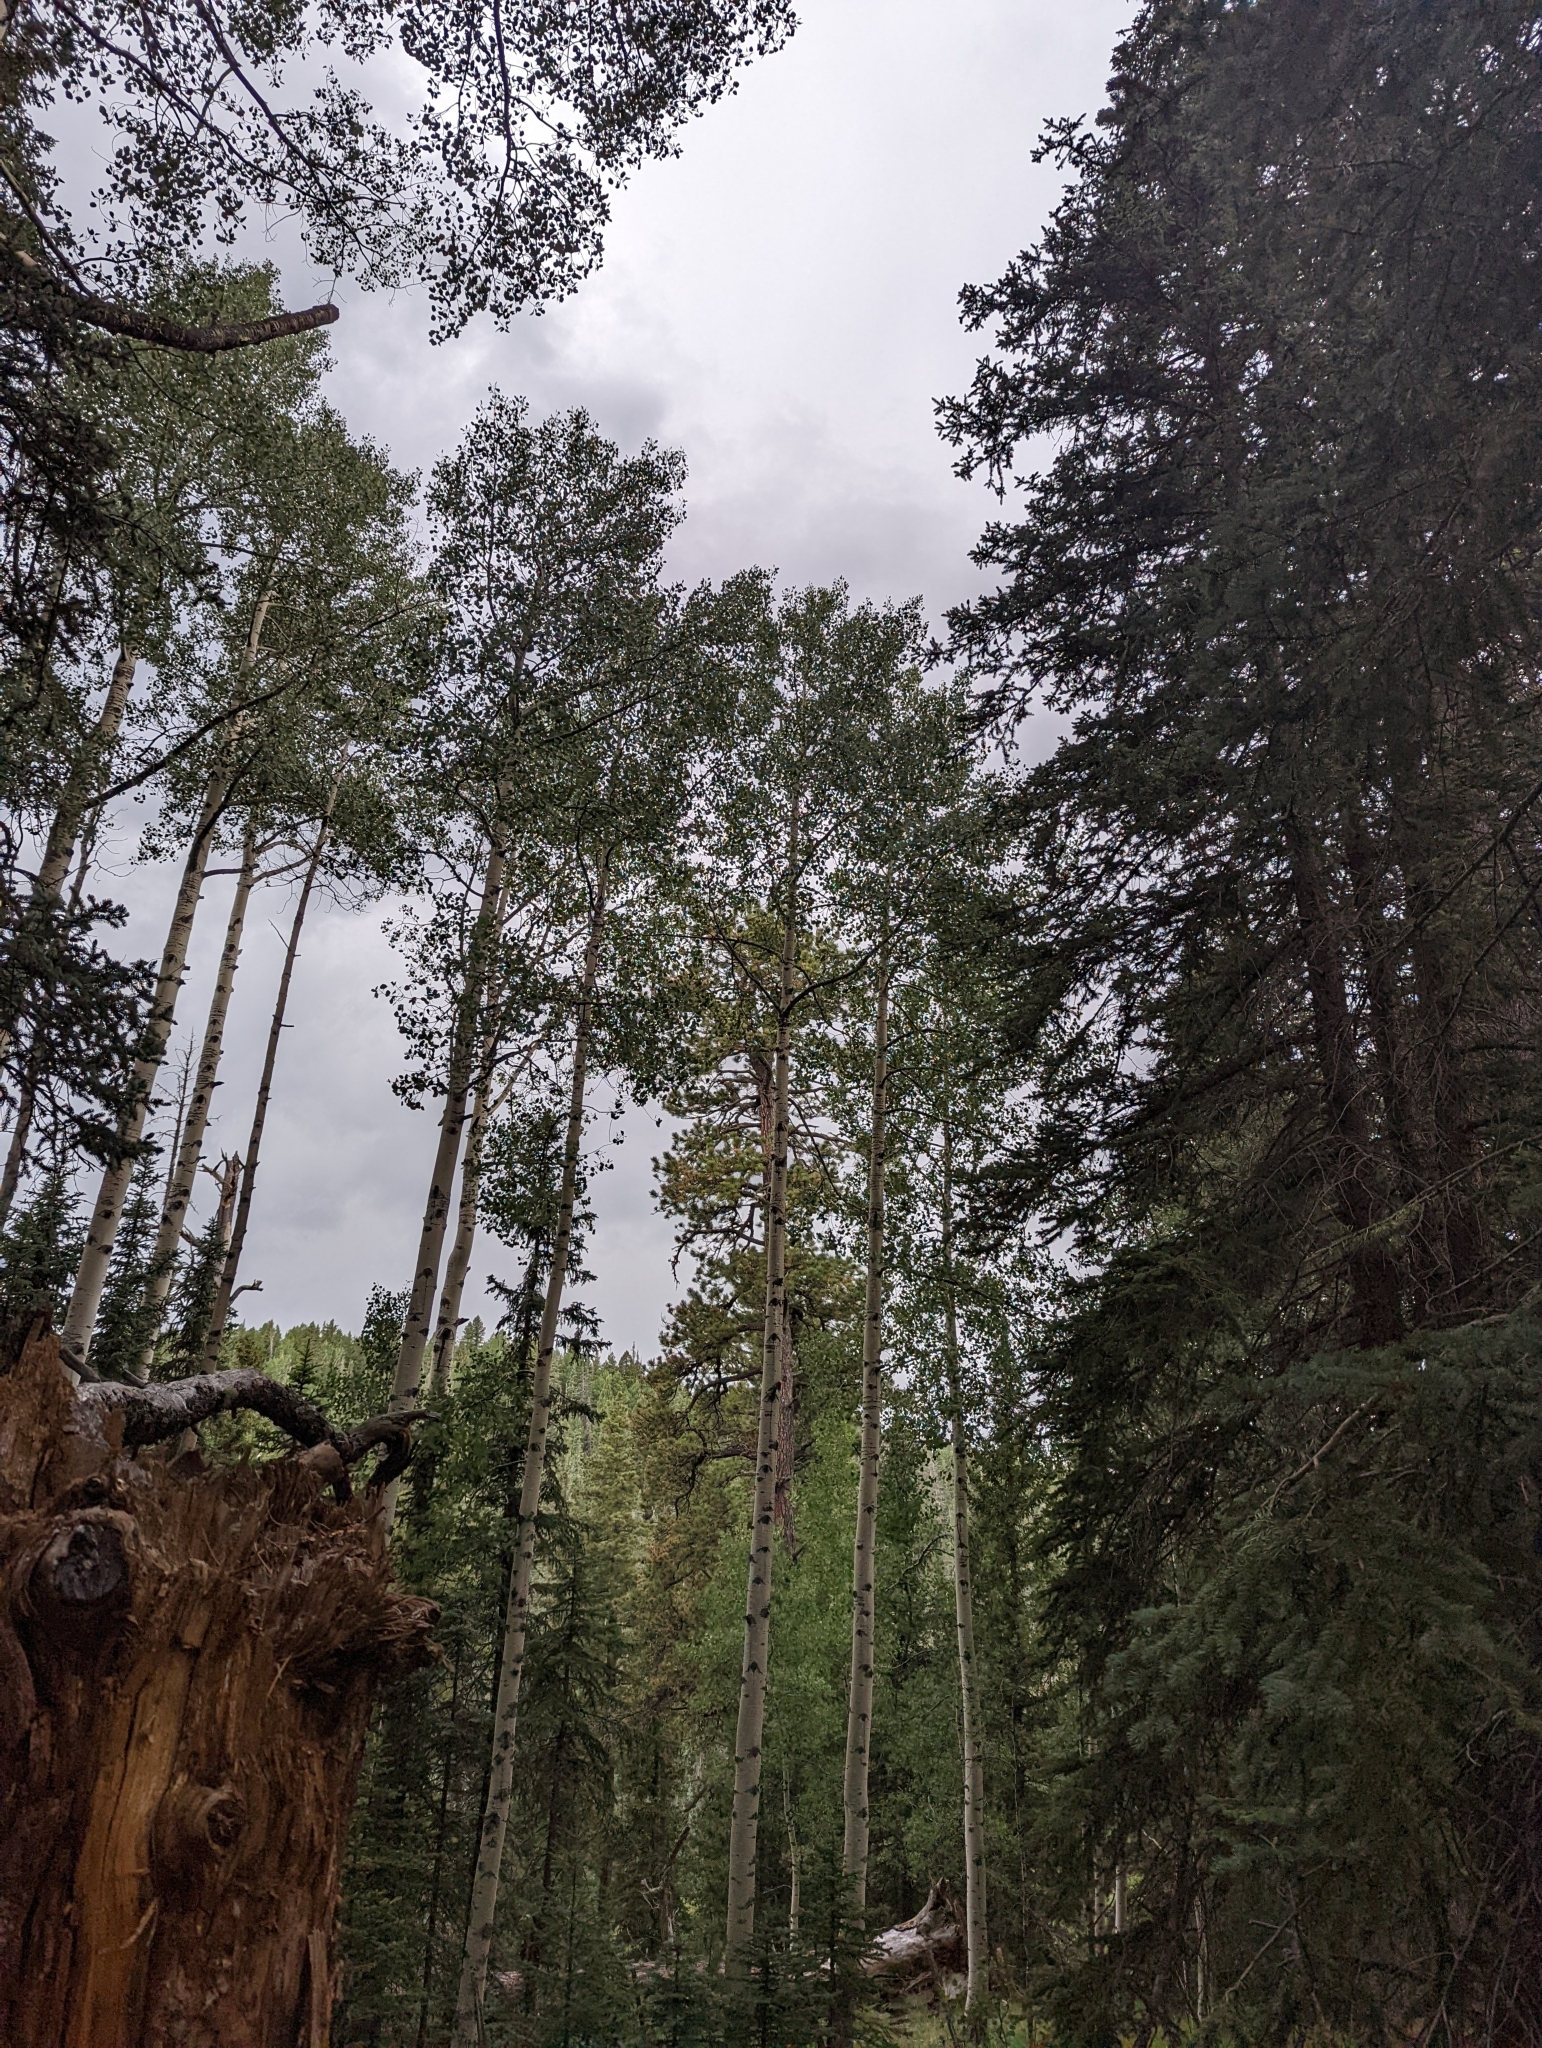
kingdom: Plantae
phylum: Tracheophyta
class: Magnoliopsida
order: Malpighiales
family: Salicaceae
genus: Populus
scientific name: Populus tremuloides
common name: Quaking aspen
